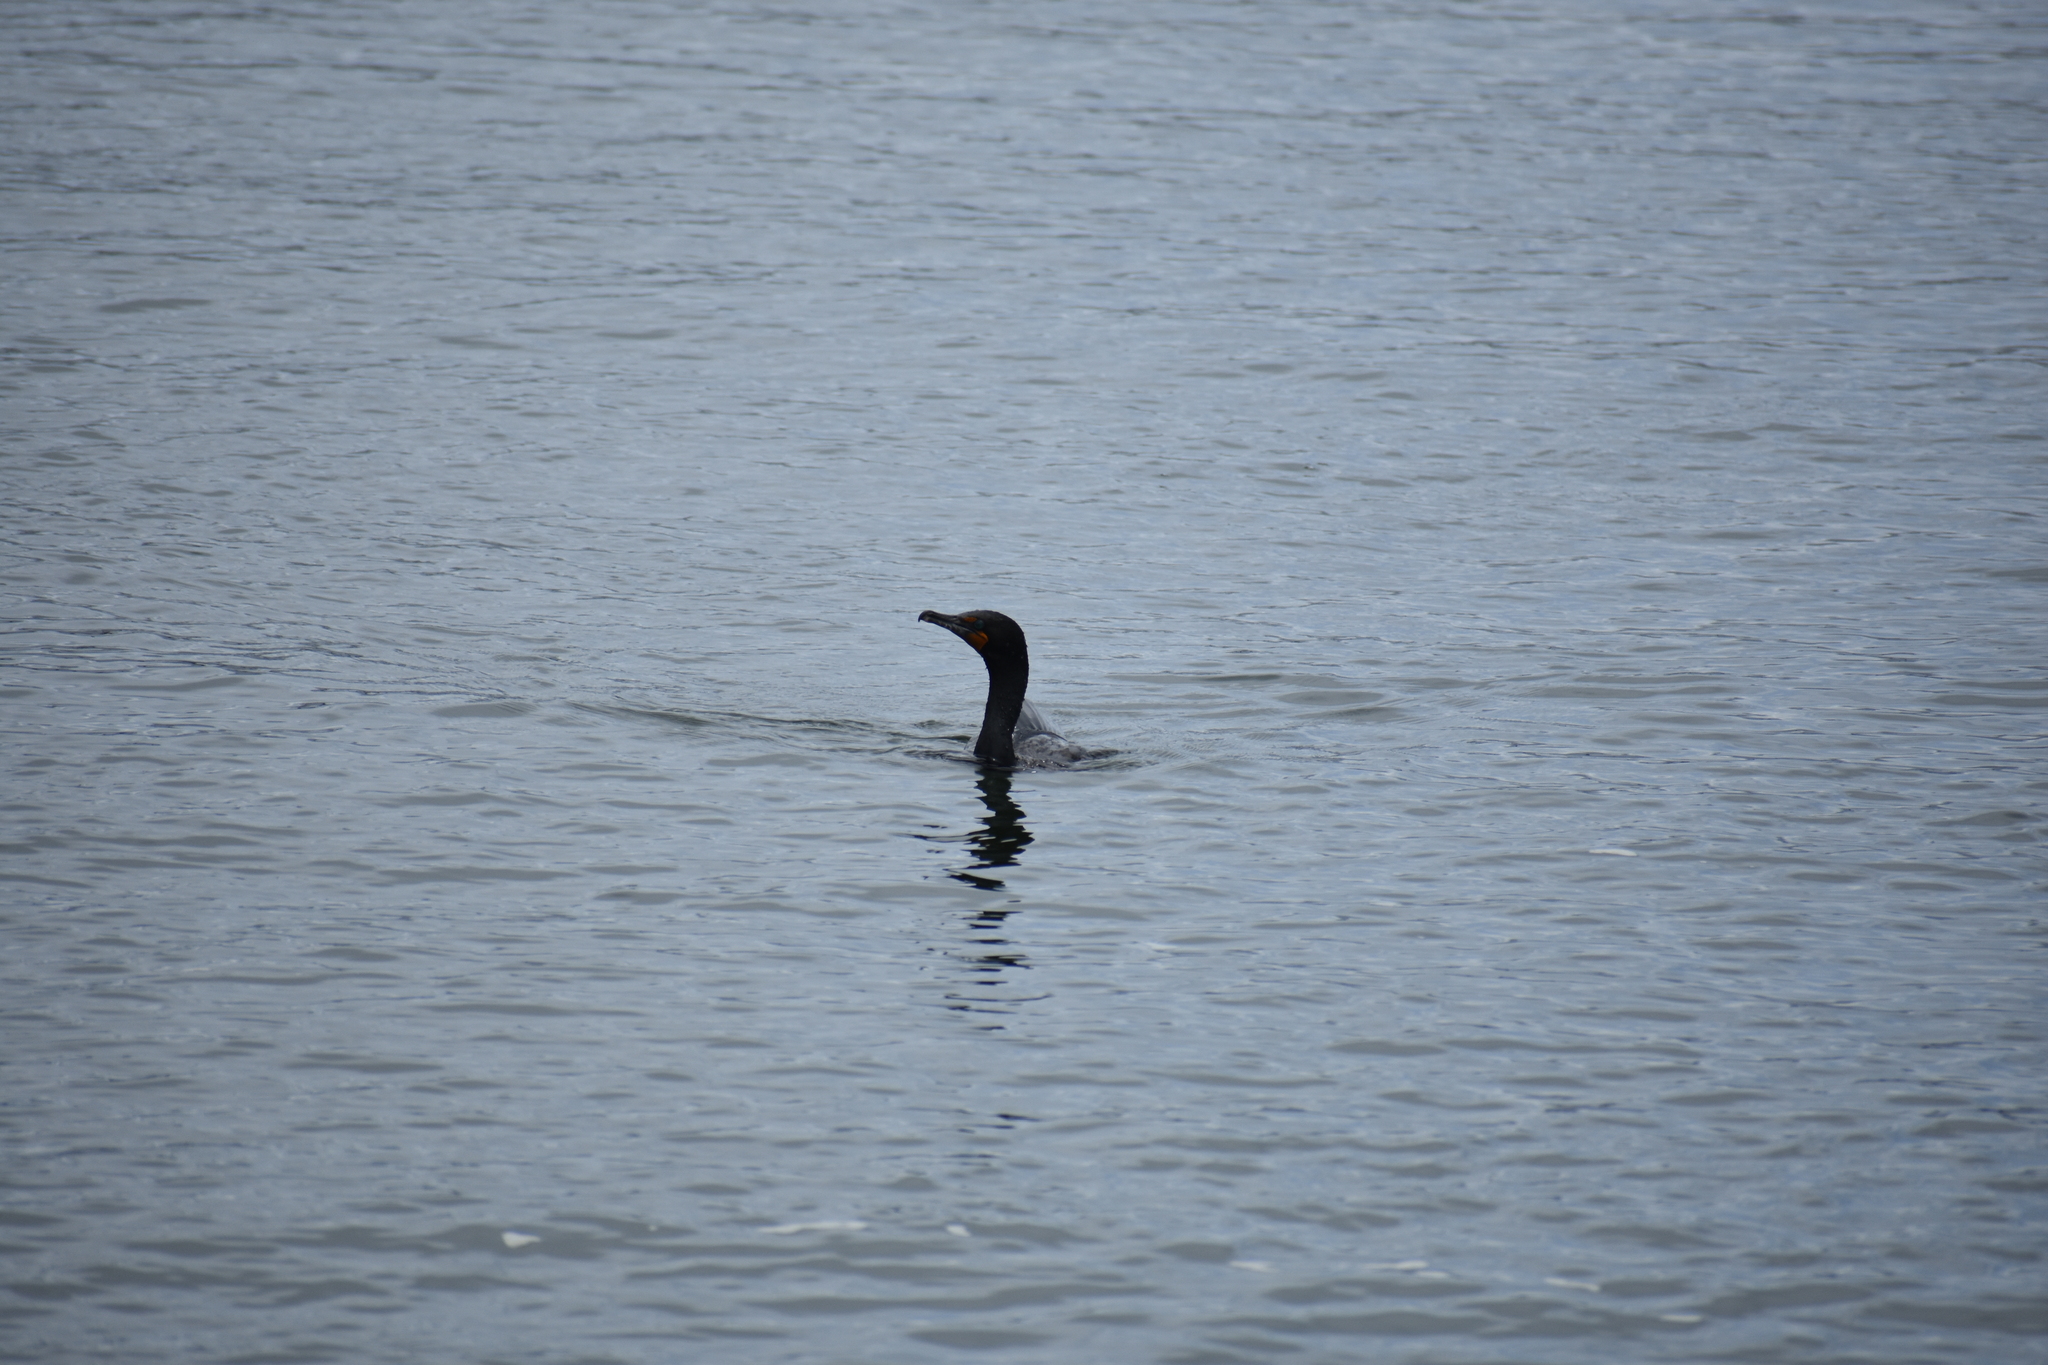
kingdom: Animalia
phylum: Chordata
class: Aves
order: Suliformes
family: Phalacrocoracidae
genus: Phalacrocorax
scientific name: Phalacrocorax auritus
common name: Double-crested cormorant
